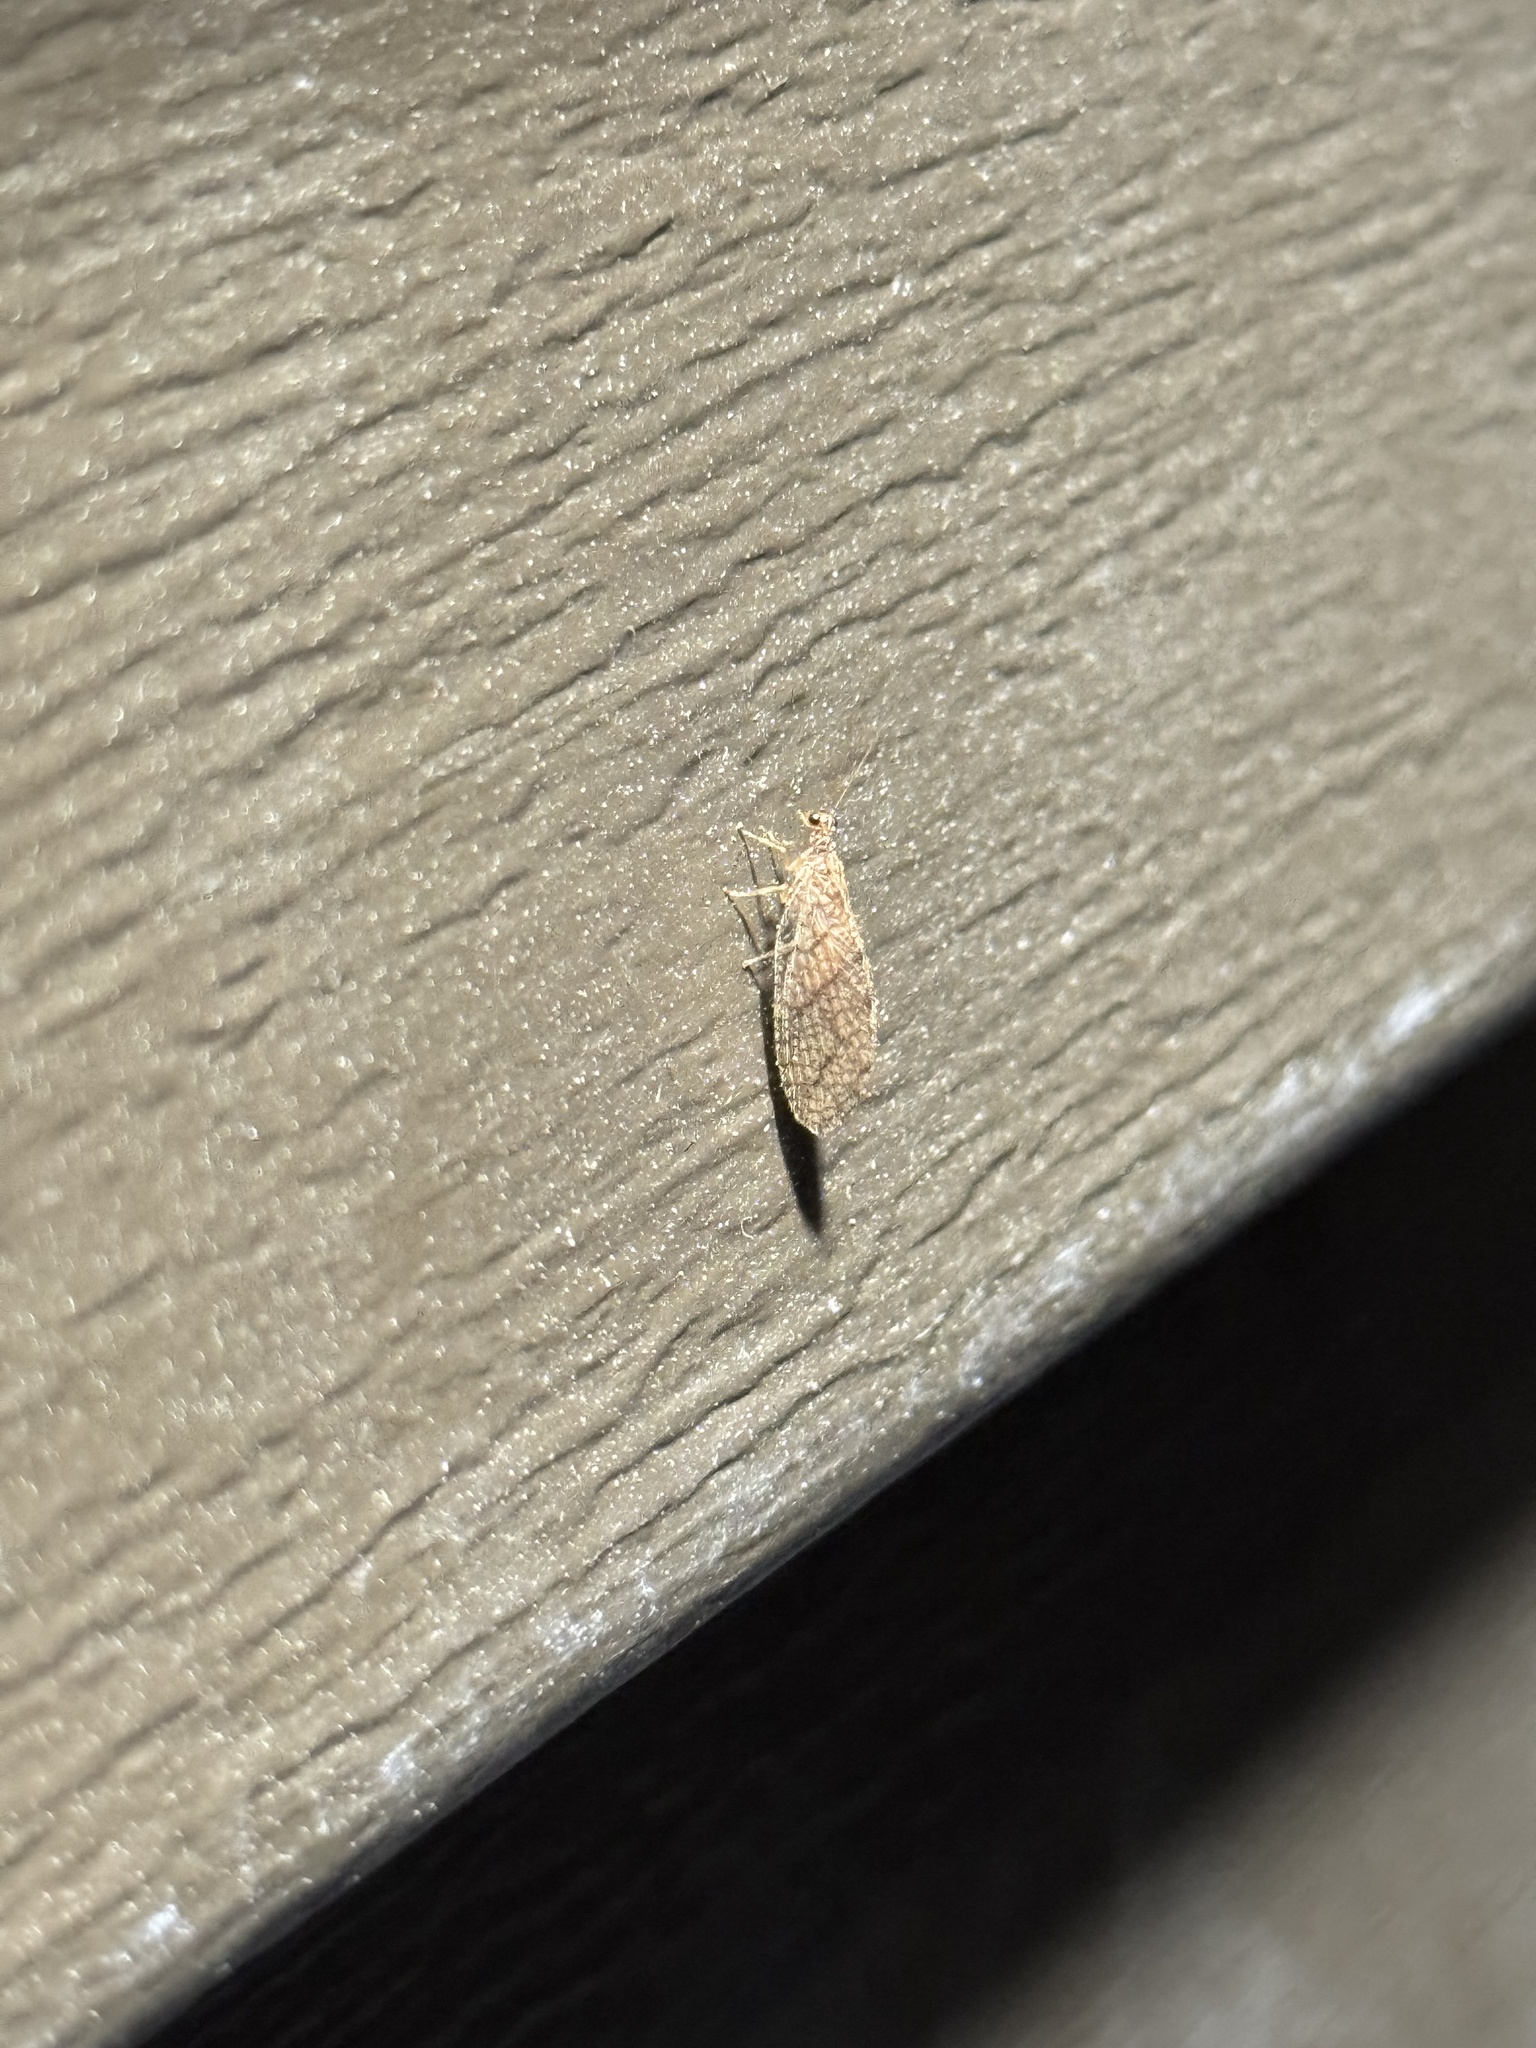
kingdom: Animalia
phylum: Arthropoda
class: Insecta
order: Neuroptera
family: Hemerobiidae
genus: Micromus
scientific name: Micromus posticus
